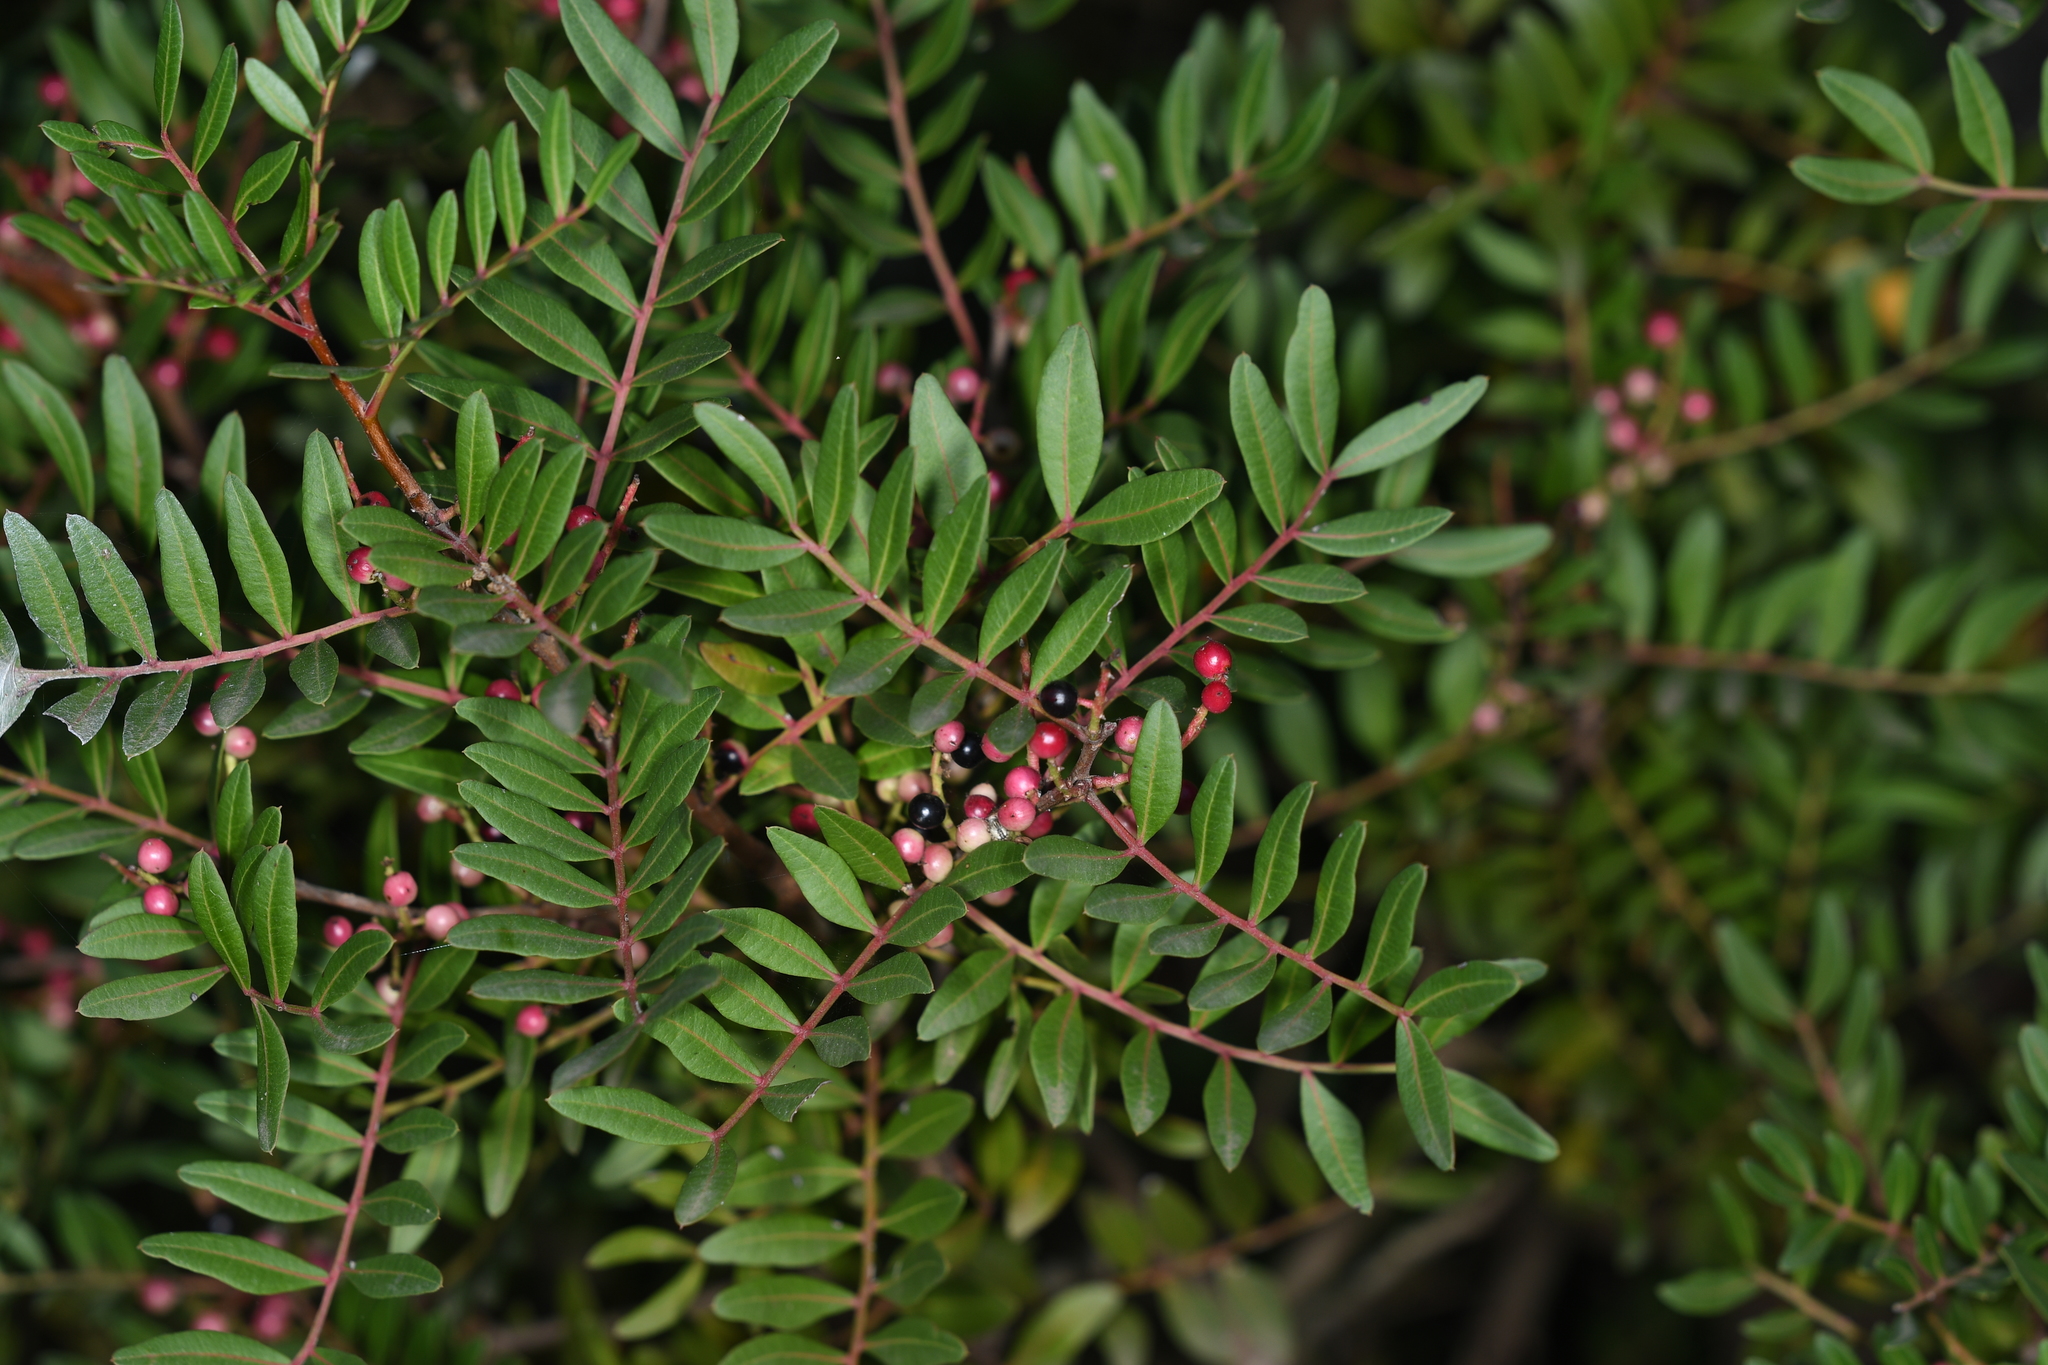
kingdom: Plantae
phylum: Tracheophyta
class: Magnoliopsida
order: Sapindales
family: Anacardiaceae
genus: Pistacia
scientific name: Pistacia lentiscus
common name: Lentisk
